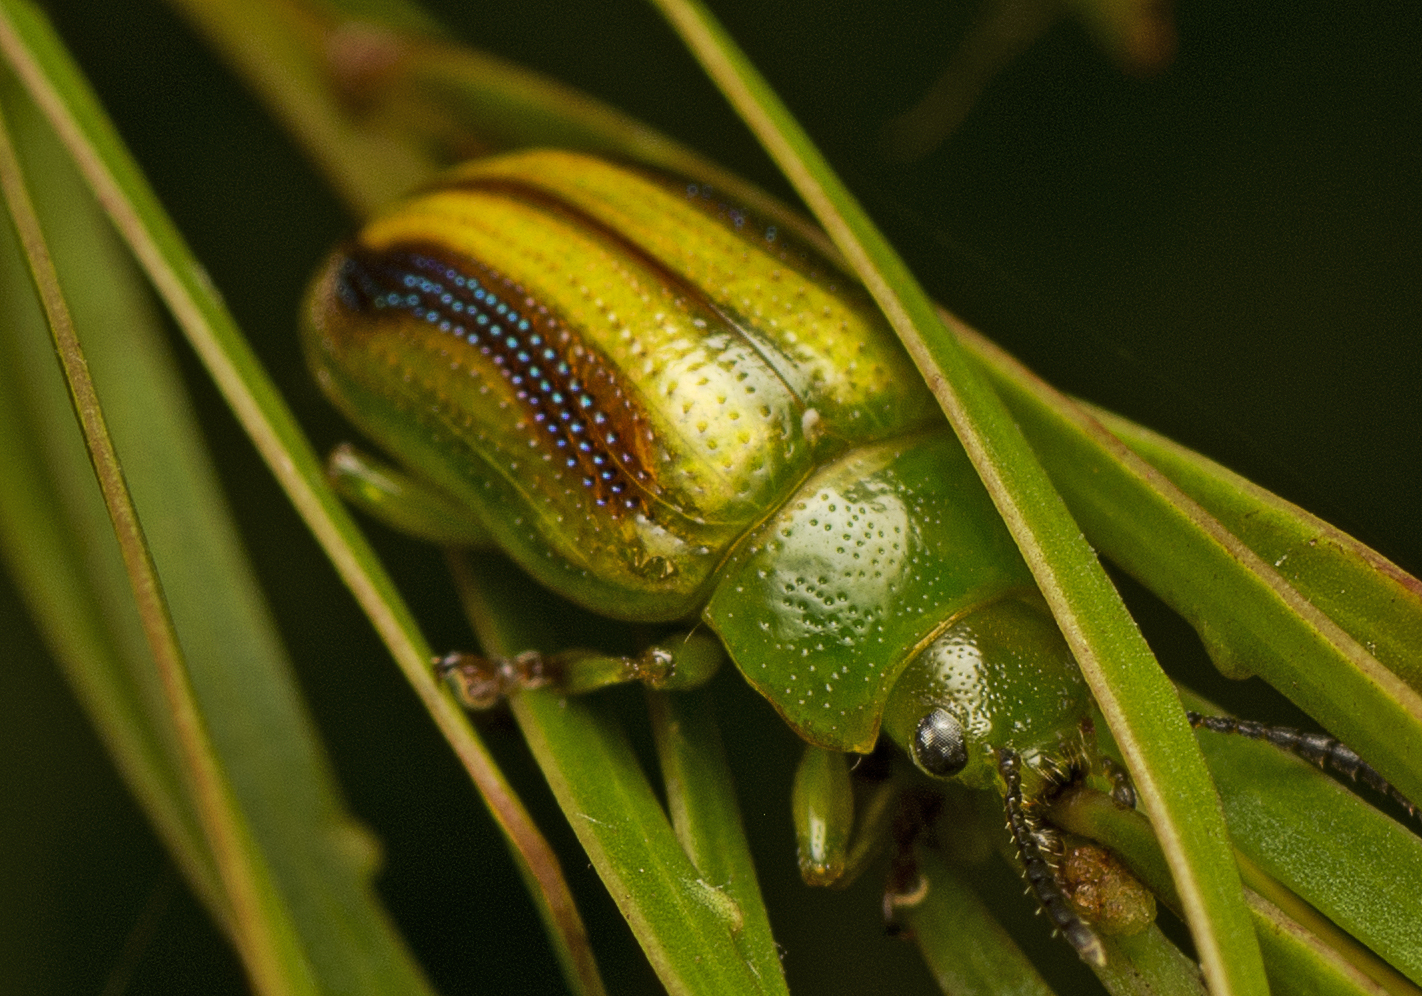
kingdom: Animalia
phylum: Arthropoda
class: Insecta
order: Coleoptera
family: Chrysomelidae
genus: Calomela
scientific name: Calomela
